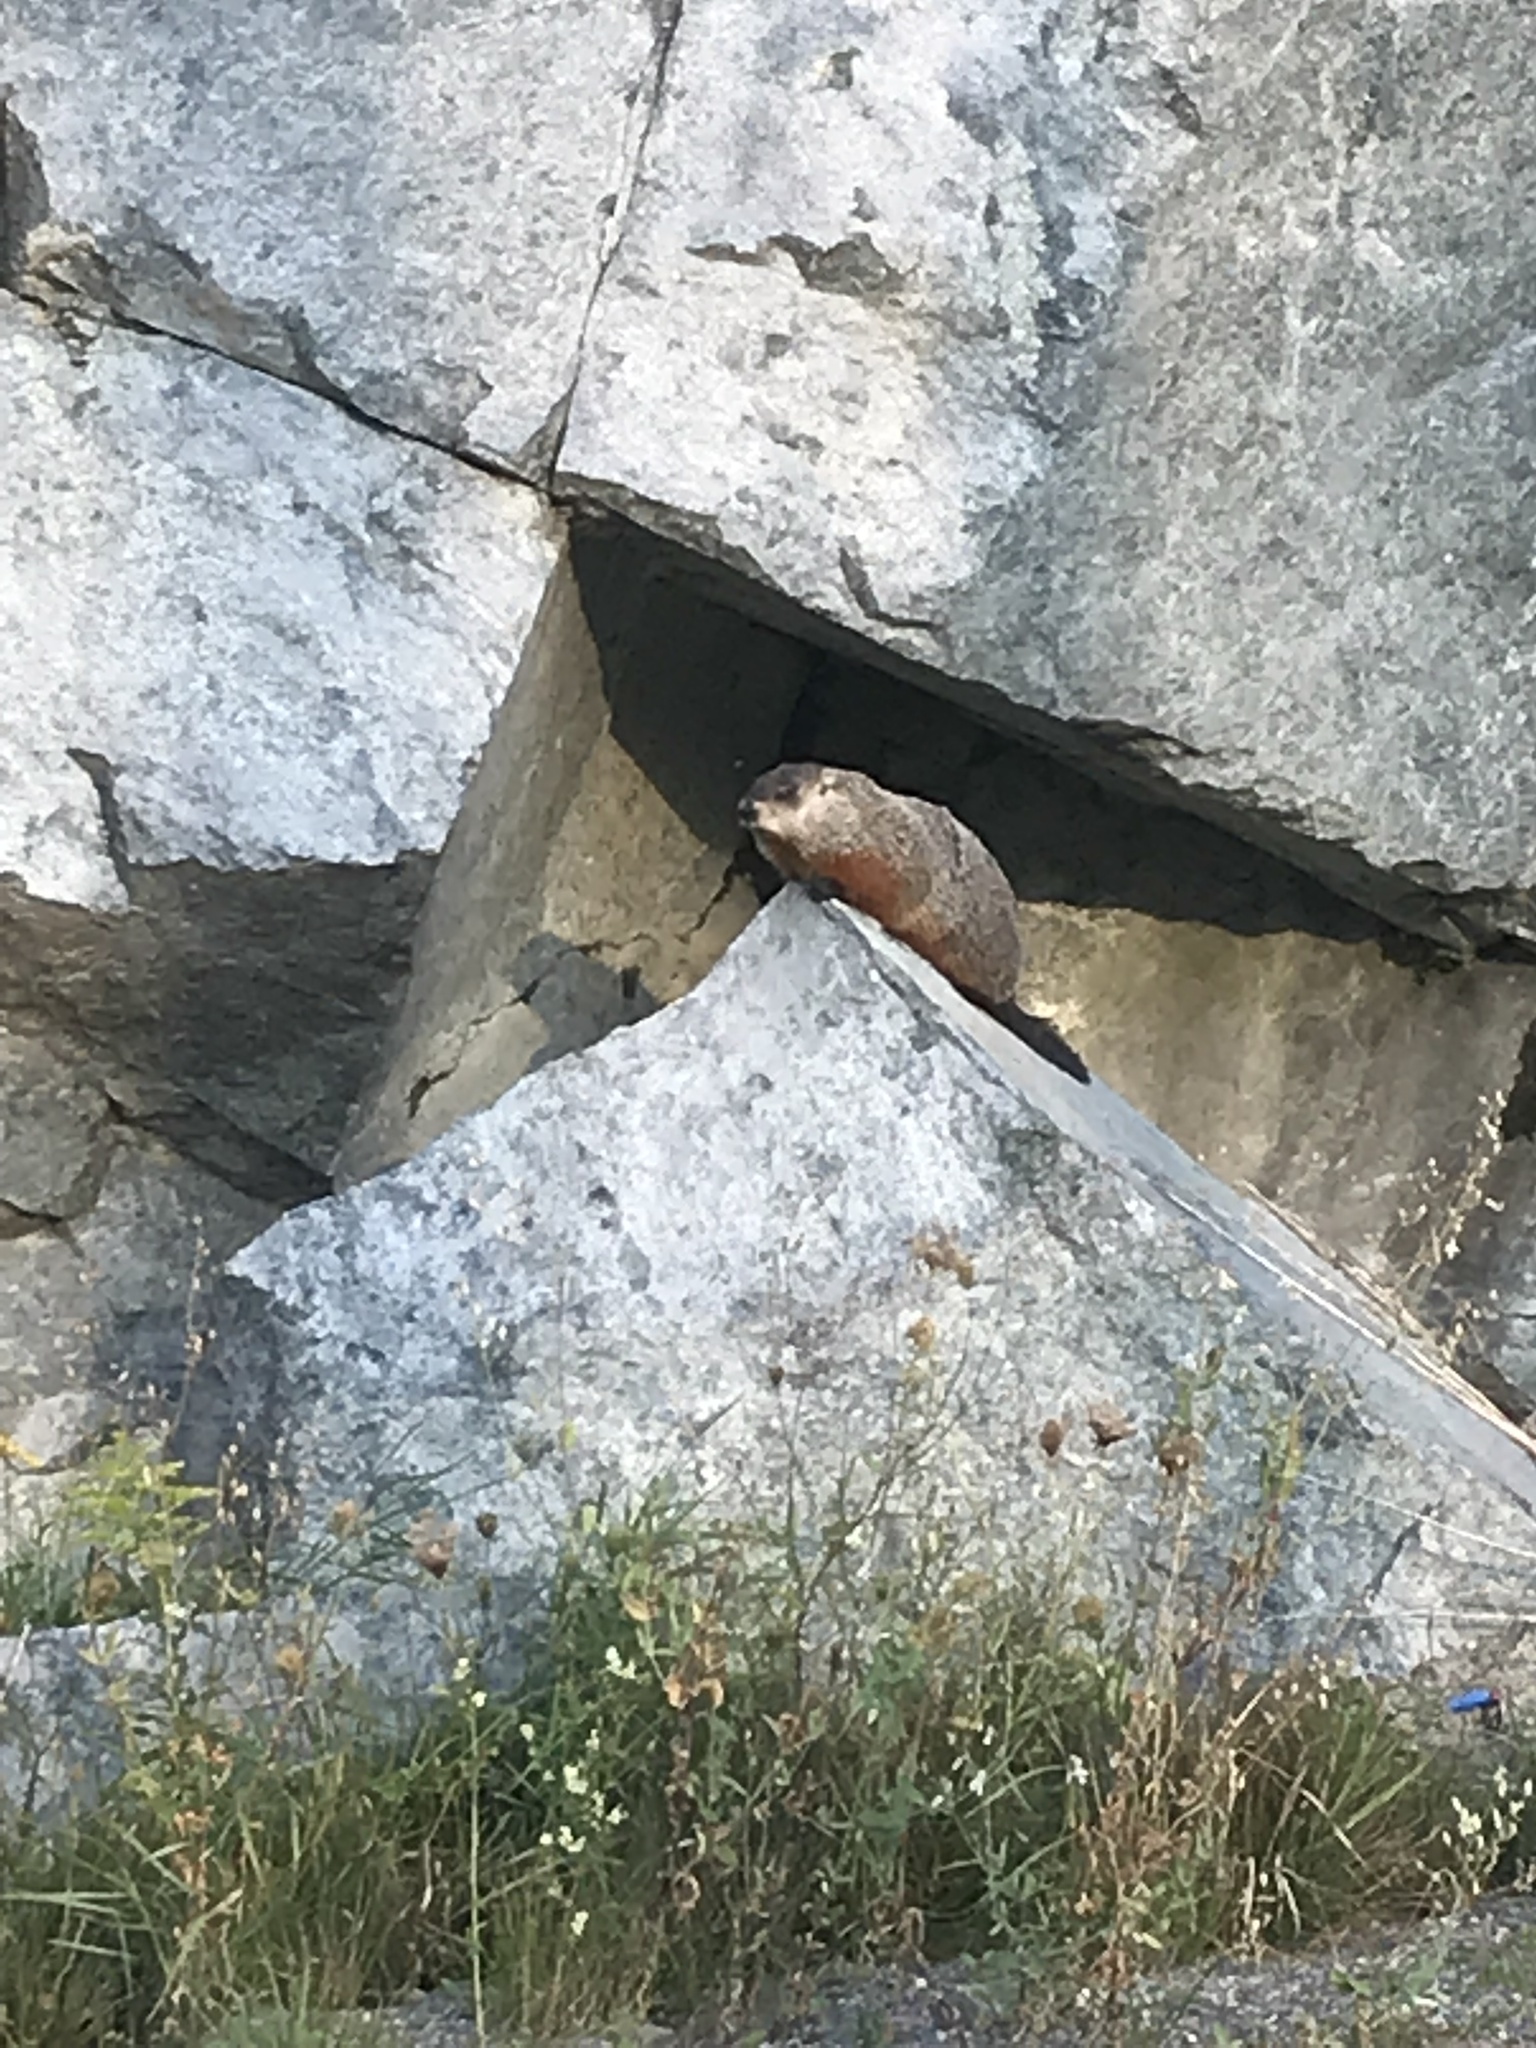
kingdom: Animalia
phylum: Chordata
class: Mammalia
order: Rodentia
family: Sciuridae
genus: Marmota
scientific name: Marmota monax
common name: Groundhog
